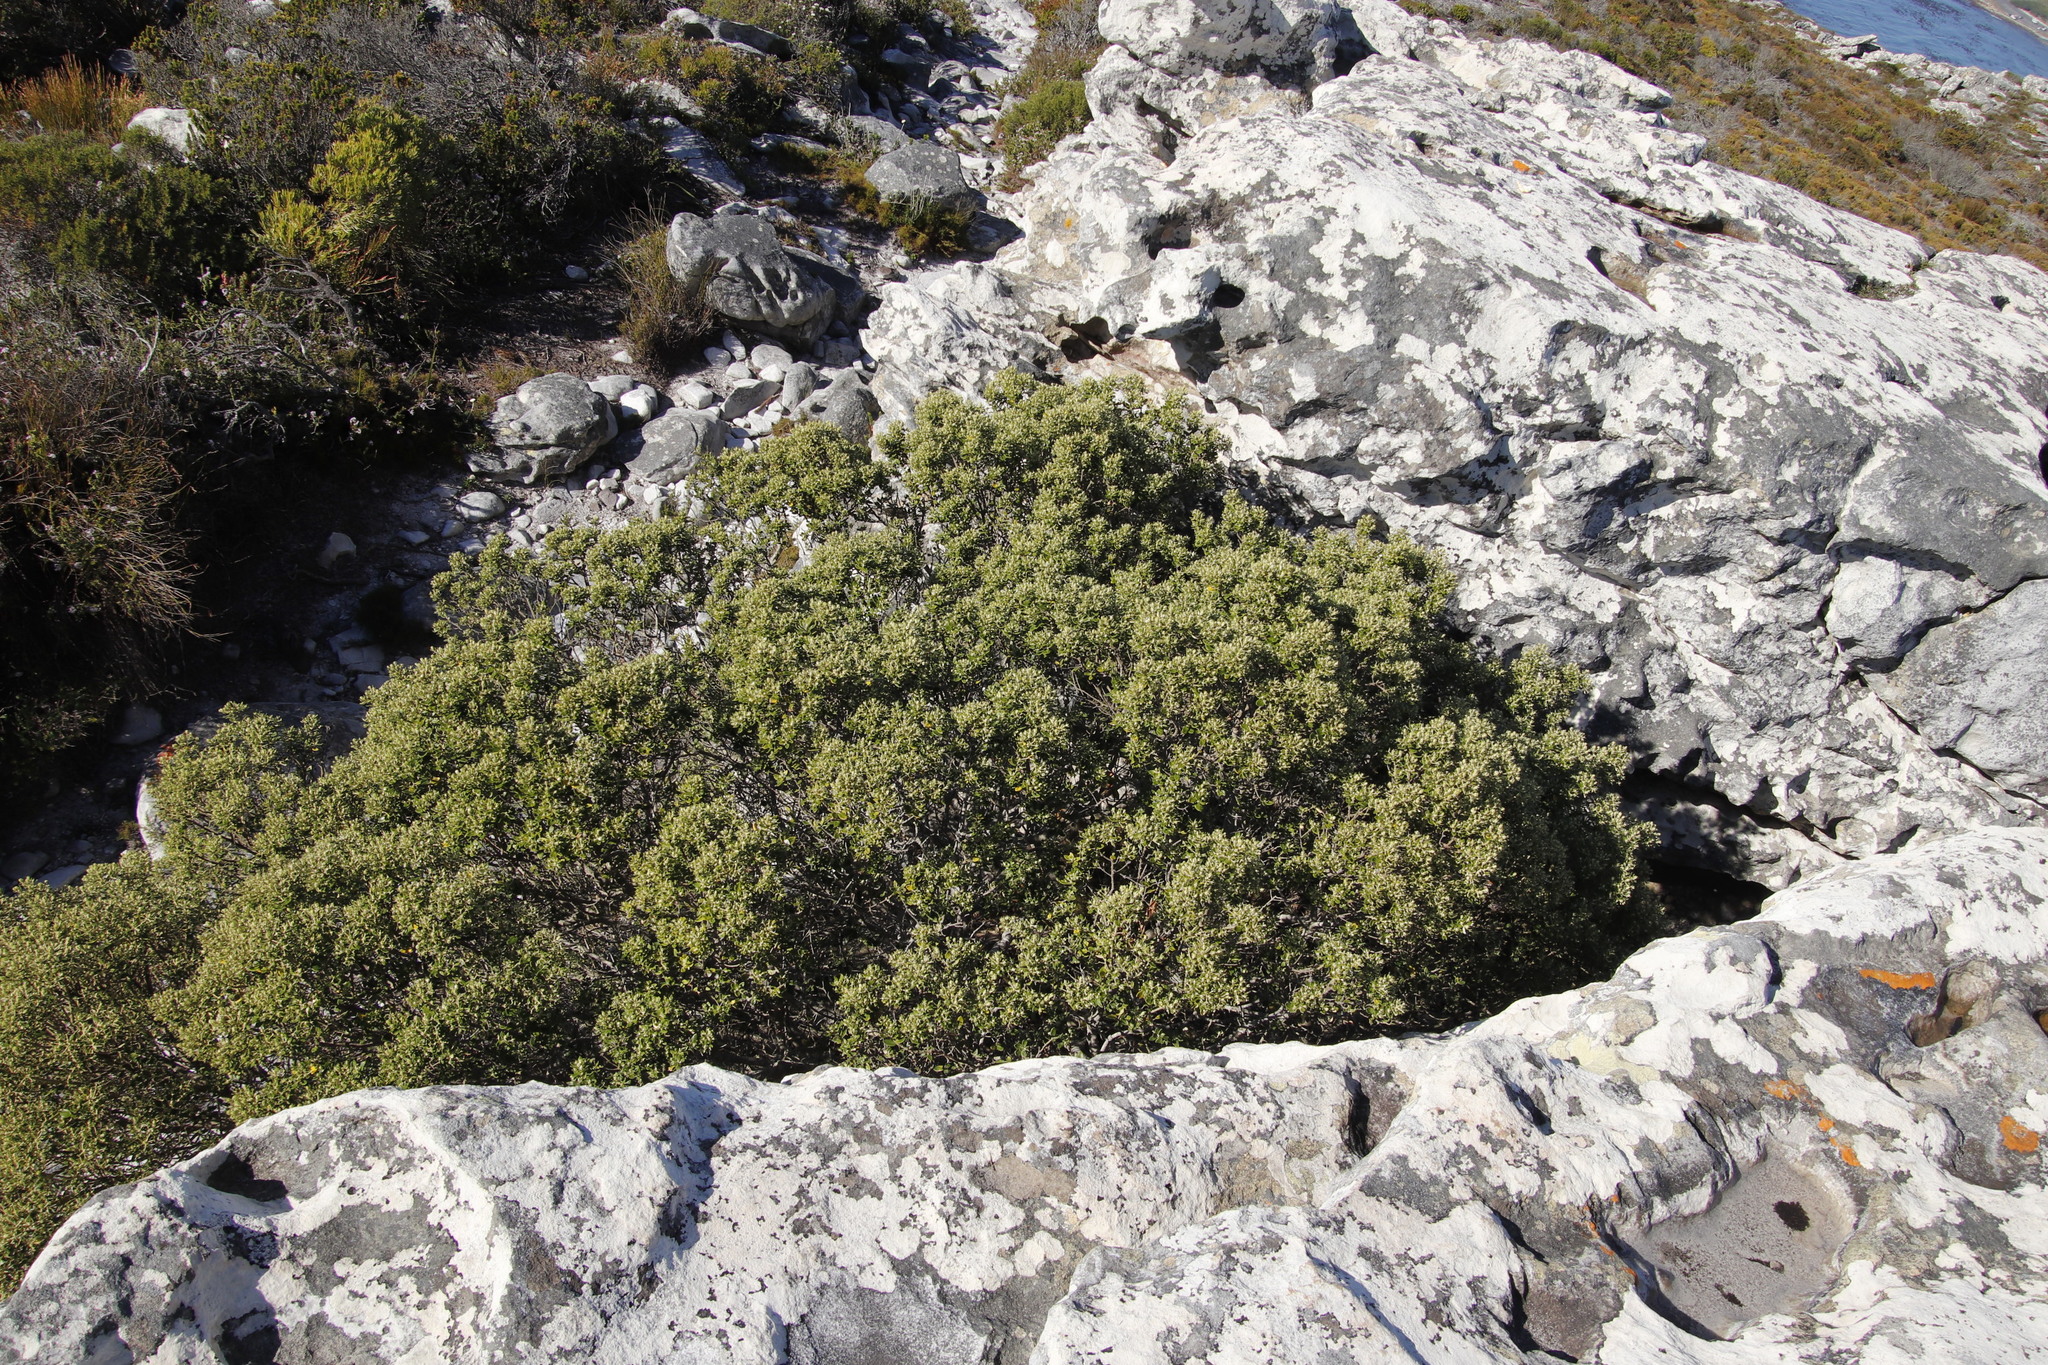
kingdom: Plantae
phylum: Tracheophyta
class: Magnoliopsida
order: Rosales
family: Rhamnaceae
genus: Phylica
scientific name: Phylica buxifolia
